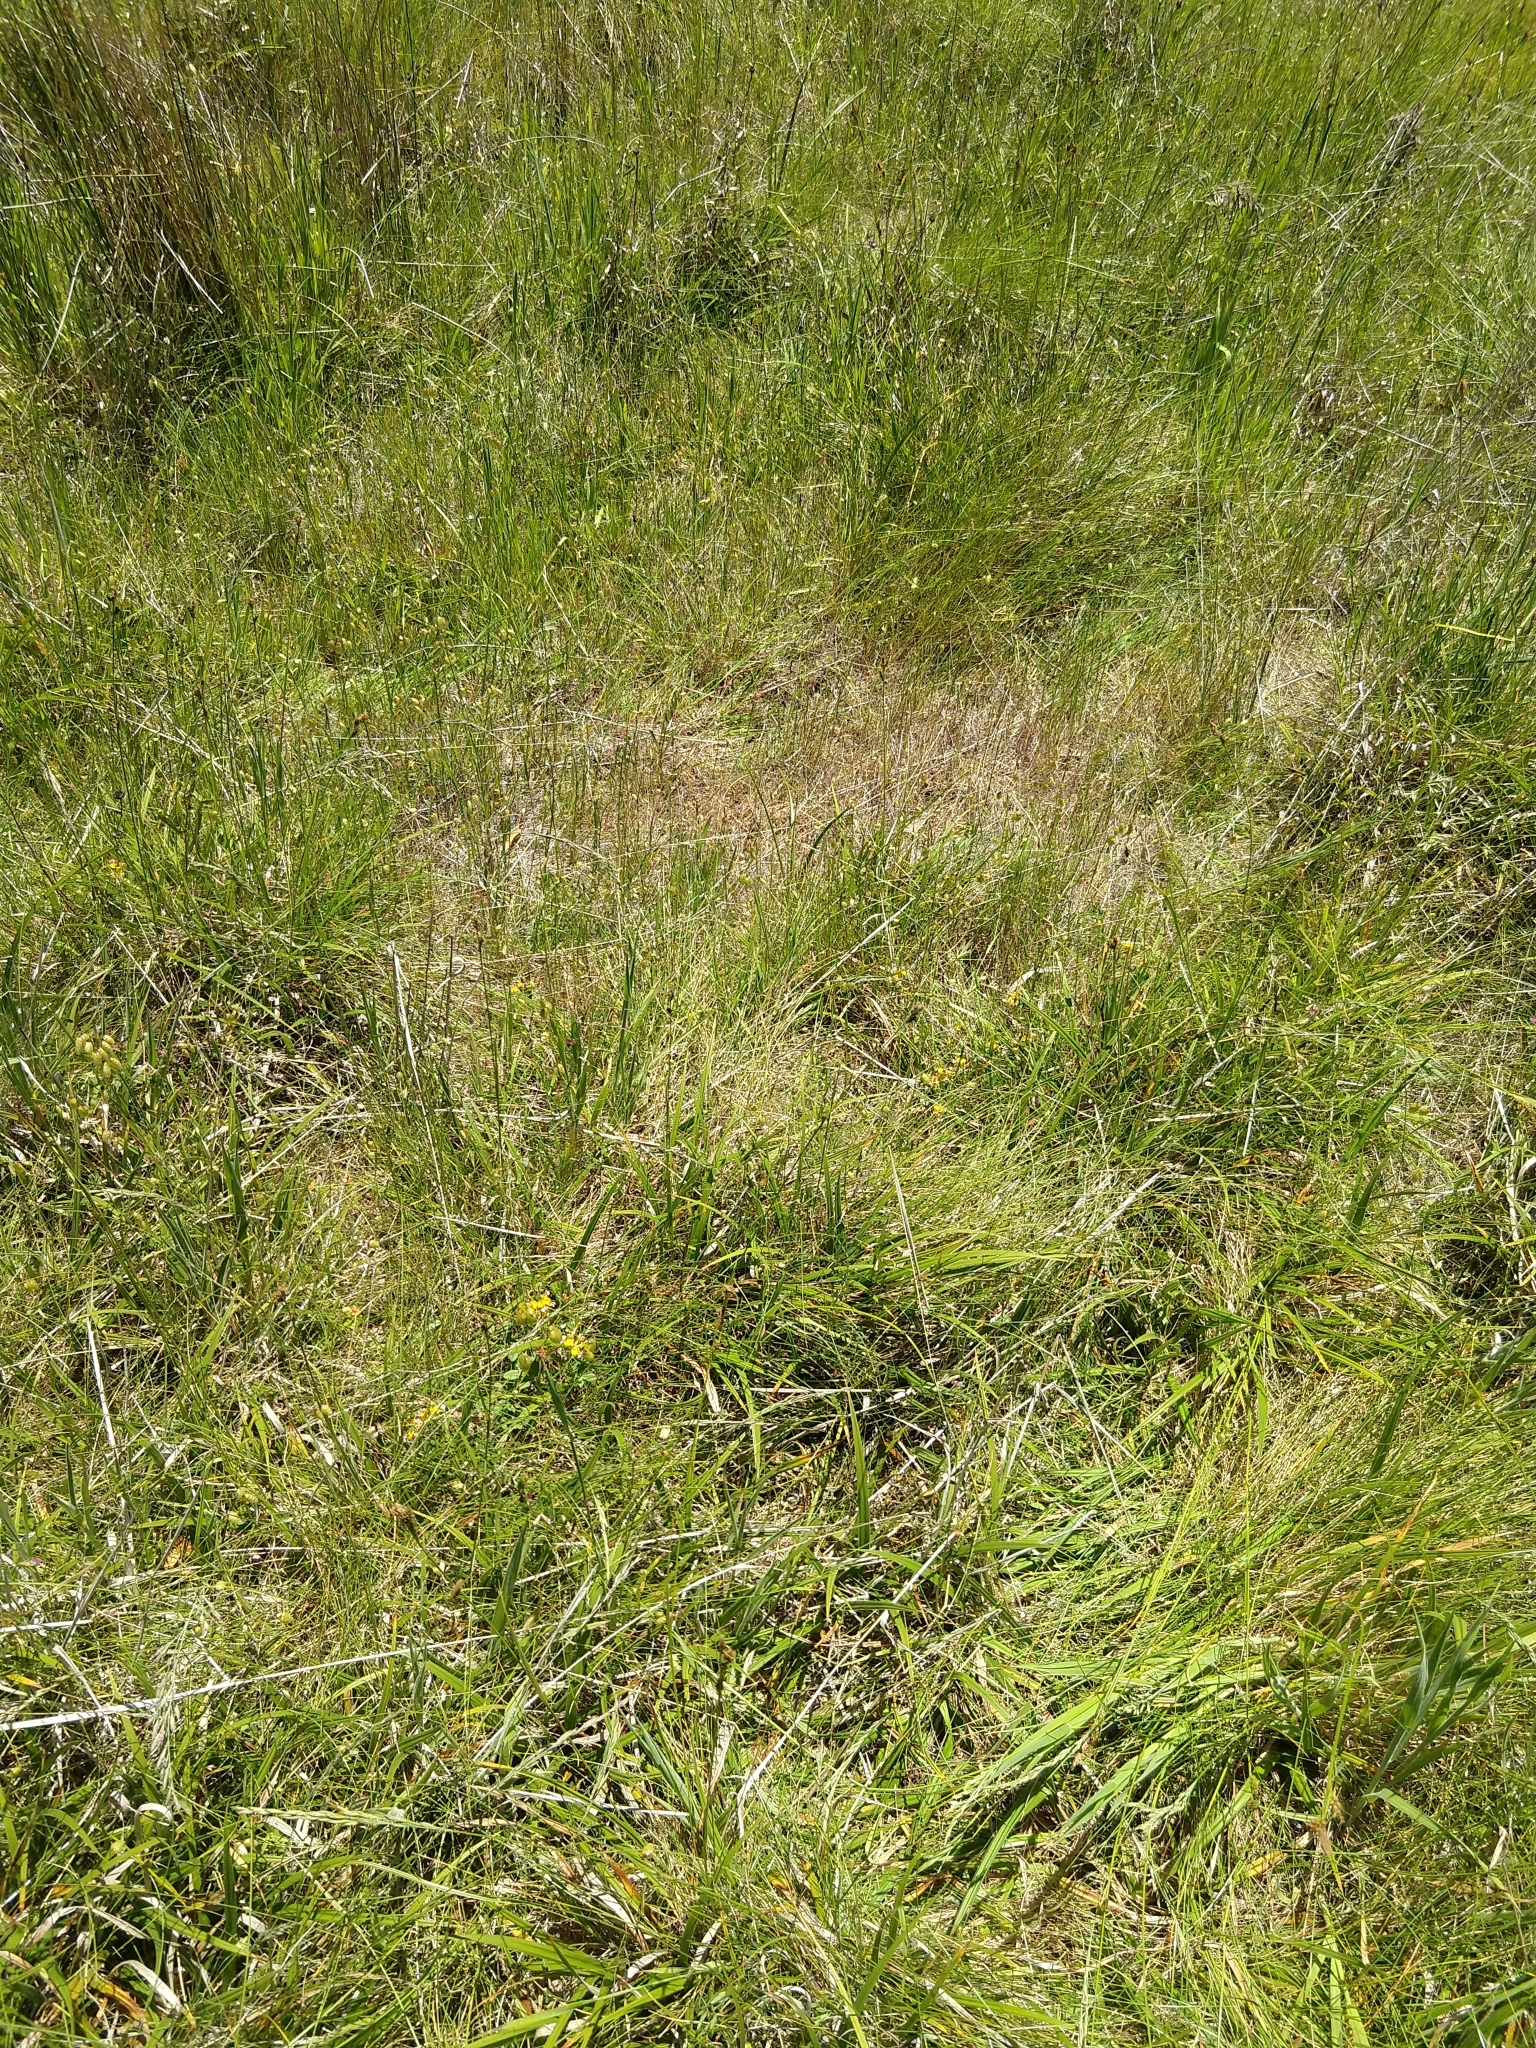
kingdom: Plantae
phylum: Tracheophyta
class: Magnoliopsida
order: Fabales
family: Fabaceae
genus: Hosackia
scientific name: Hosackia gracilis
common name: Seaside bird's-foot lotus
